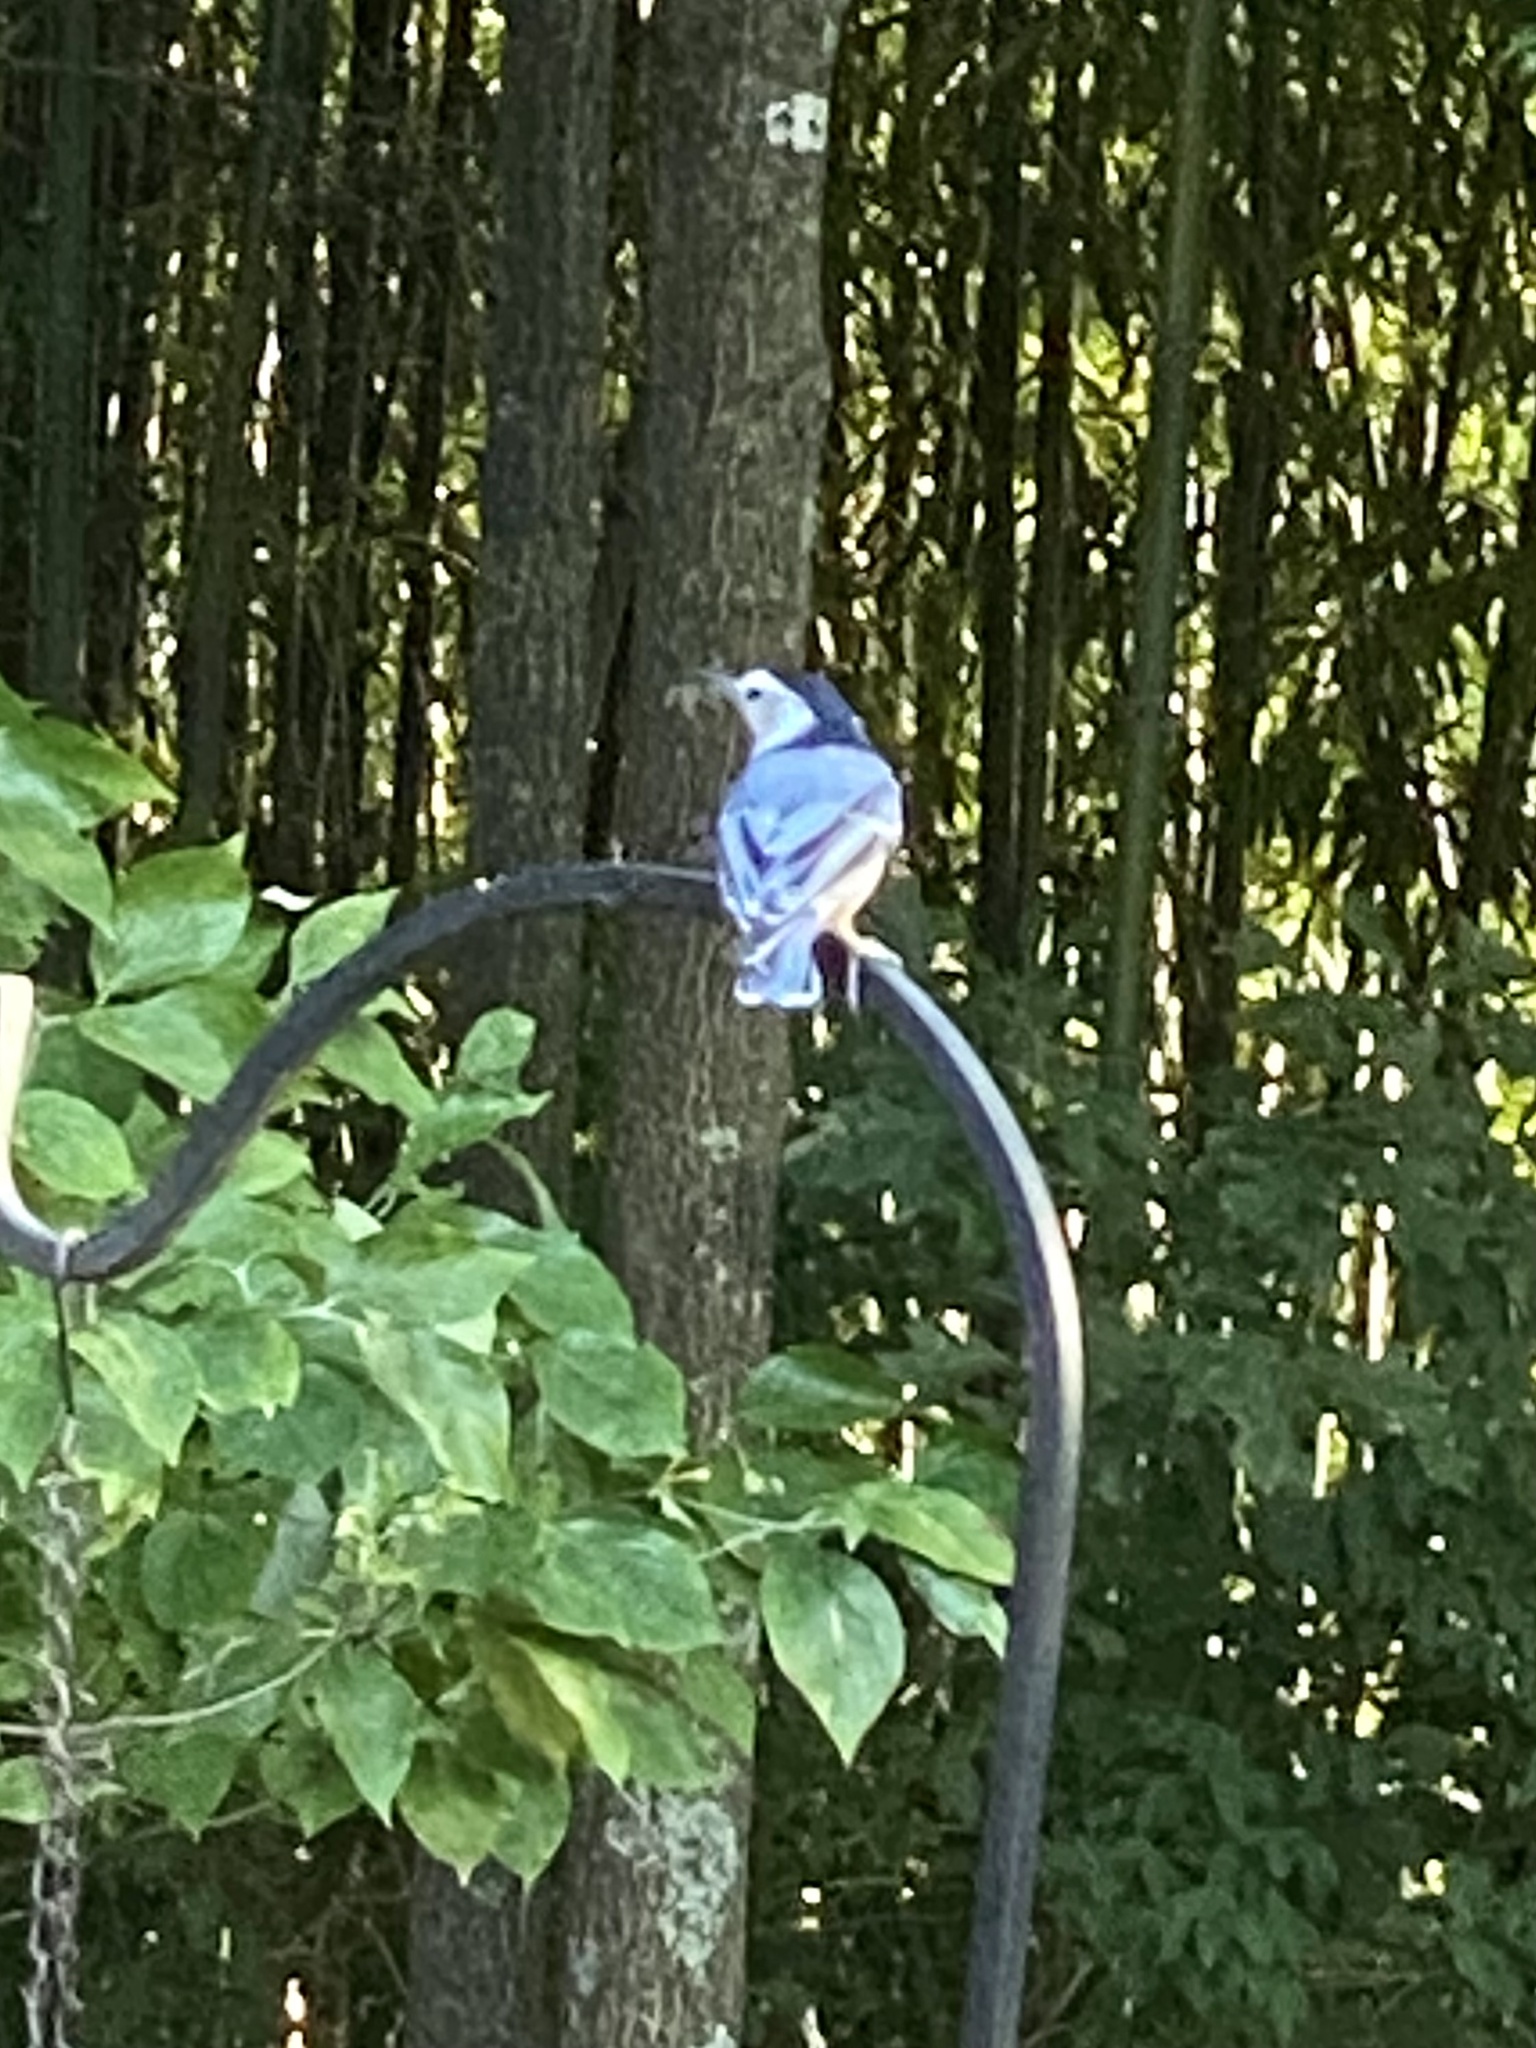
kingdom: Animalia
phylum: Chordata
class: Aves
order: Passeriformes
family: Sittidae
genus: Sitta
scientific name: Sitta carolinensis
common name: White-breasted nuthatch
